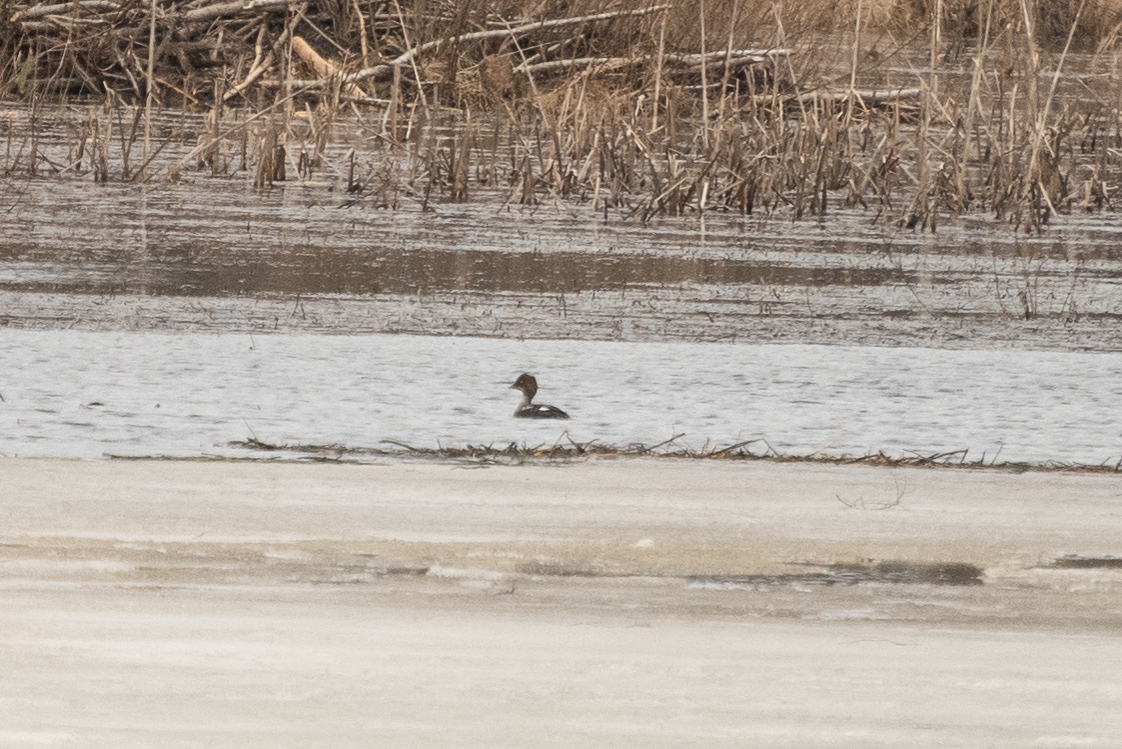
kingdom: Animalia
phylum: Chordata
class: Aves
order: Anseriformes
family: Anatidae
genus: Bucephala
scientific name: Bucephala clangula
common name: Common goldeneye
